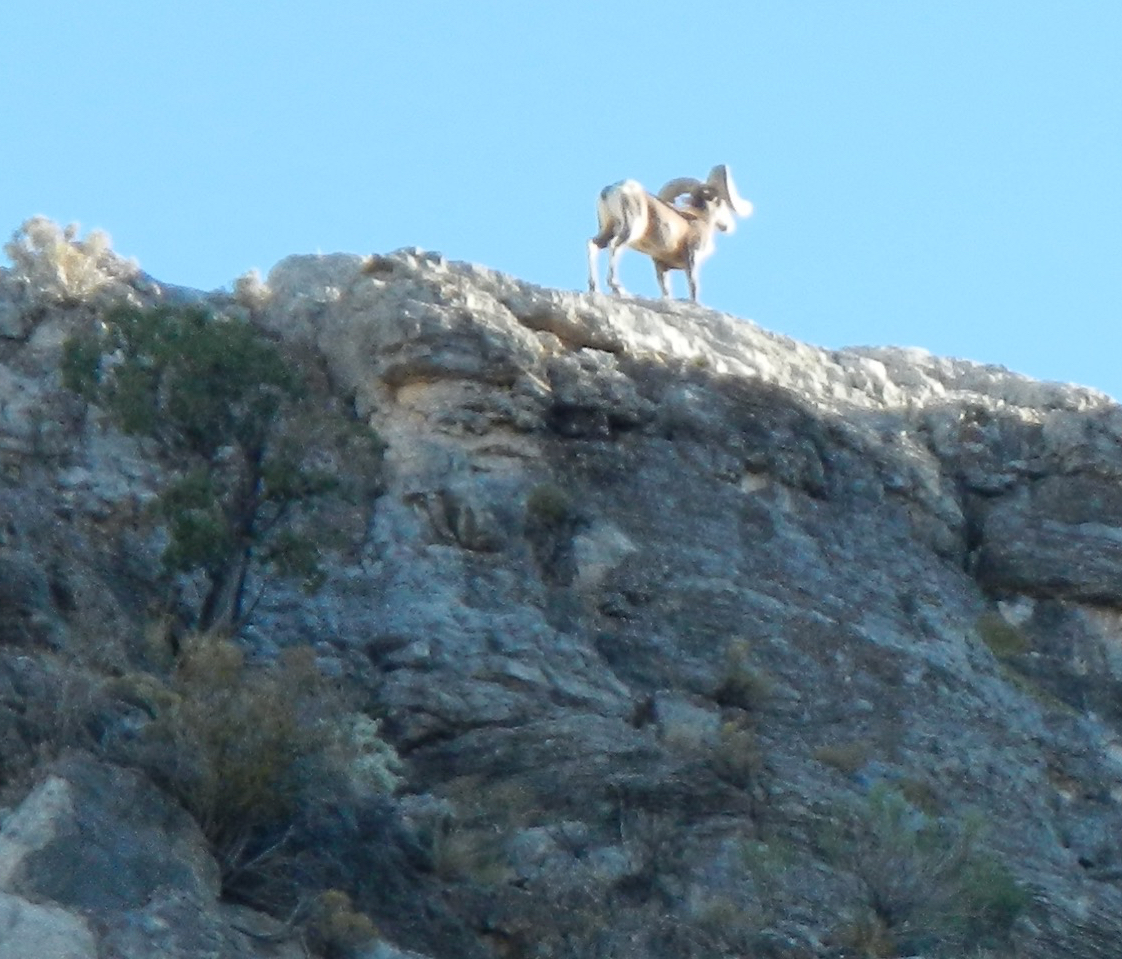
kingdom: Animalia
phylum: Chordata
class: Mammalia
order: Artiodactyla
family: Bovidae
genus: Ovis
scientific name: Ovis canadensis
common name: Bighorn sheep
